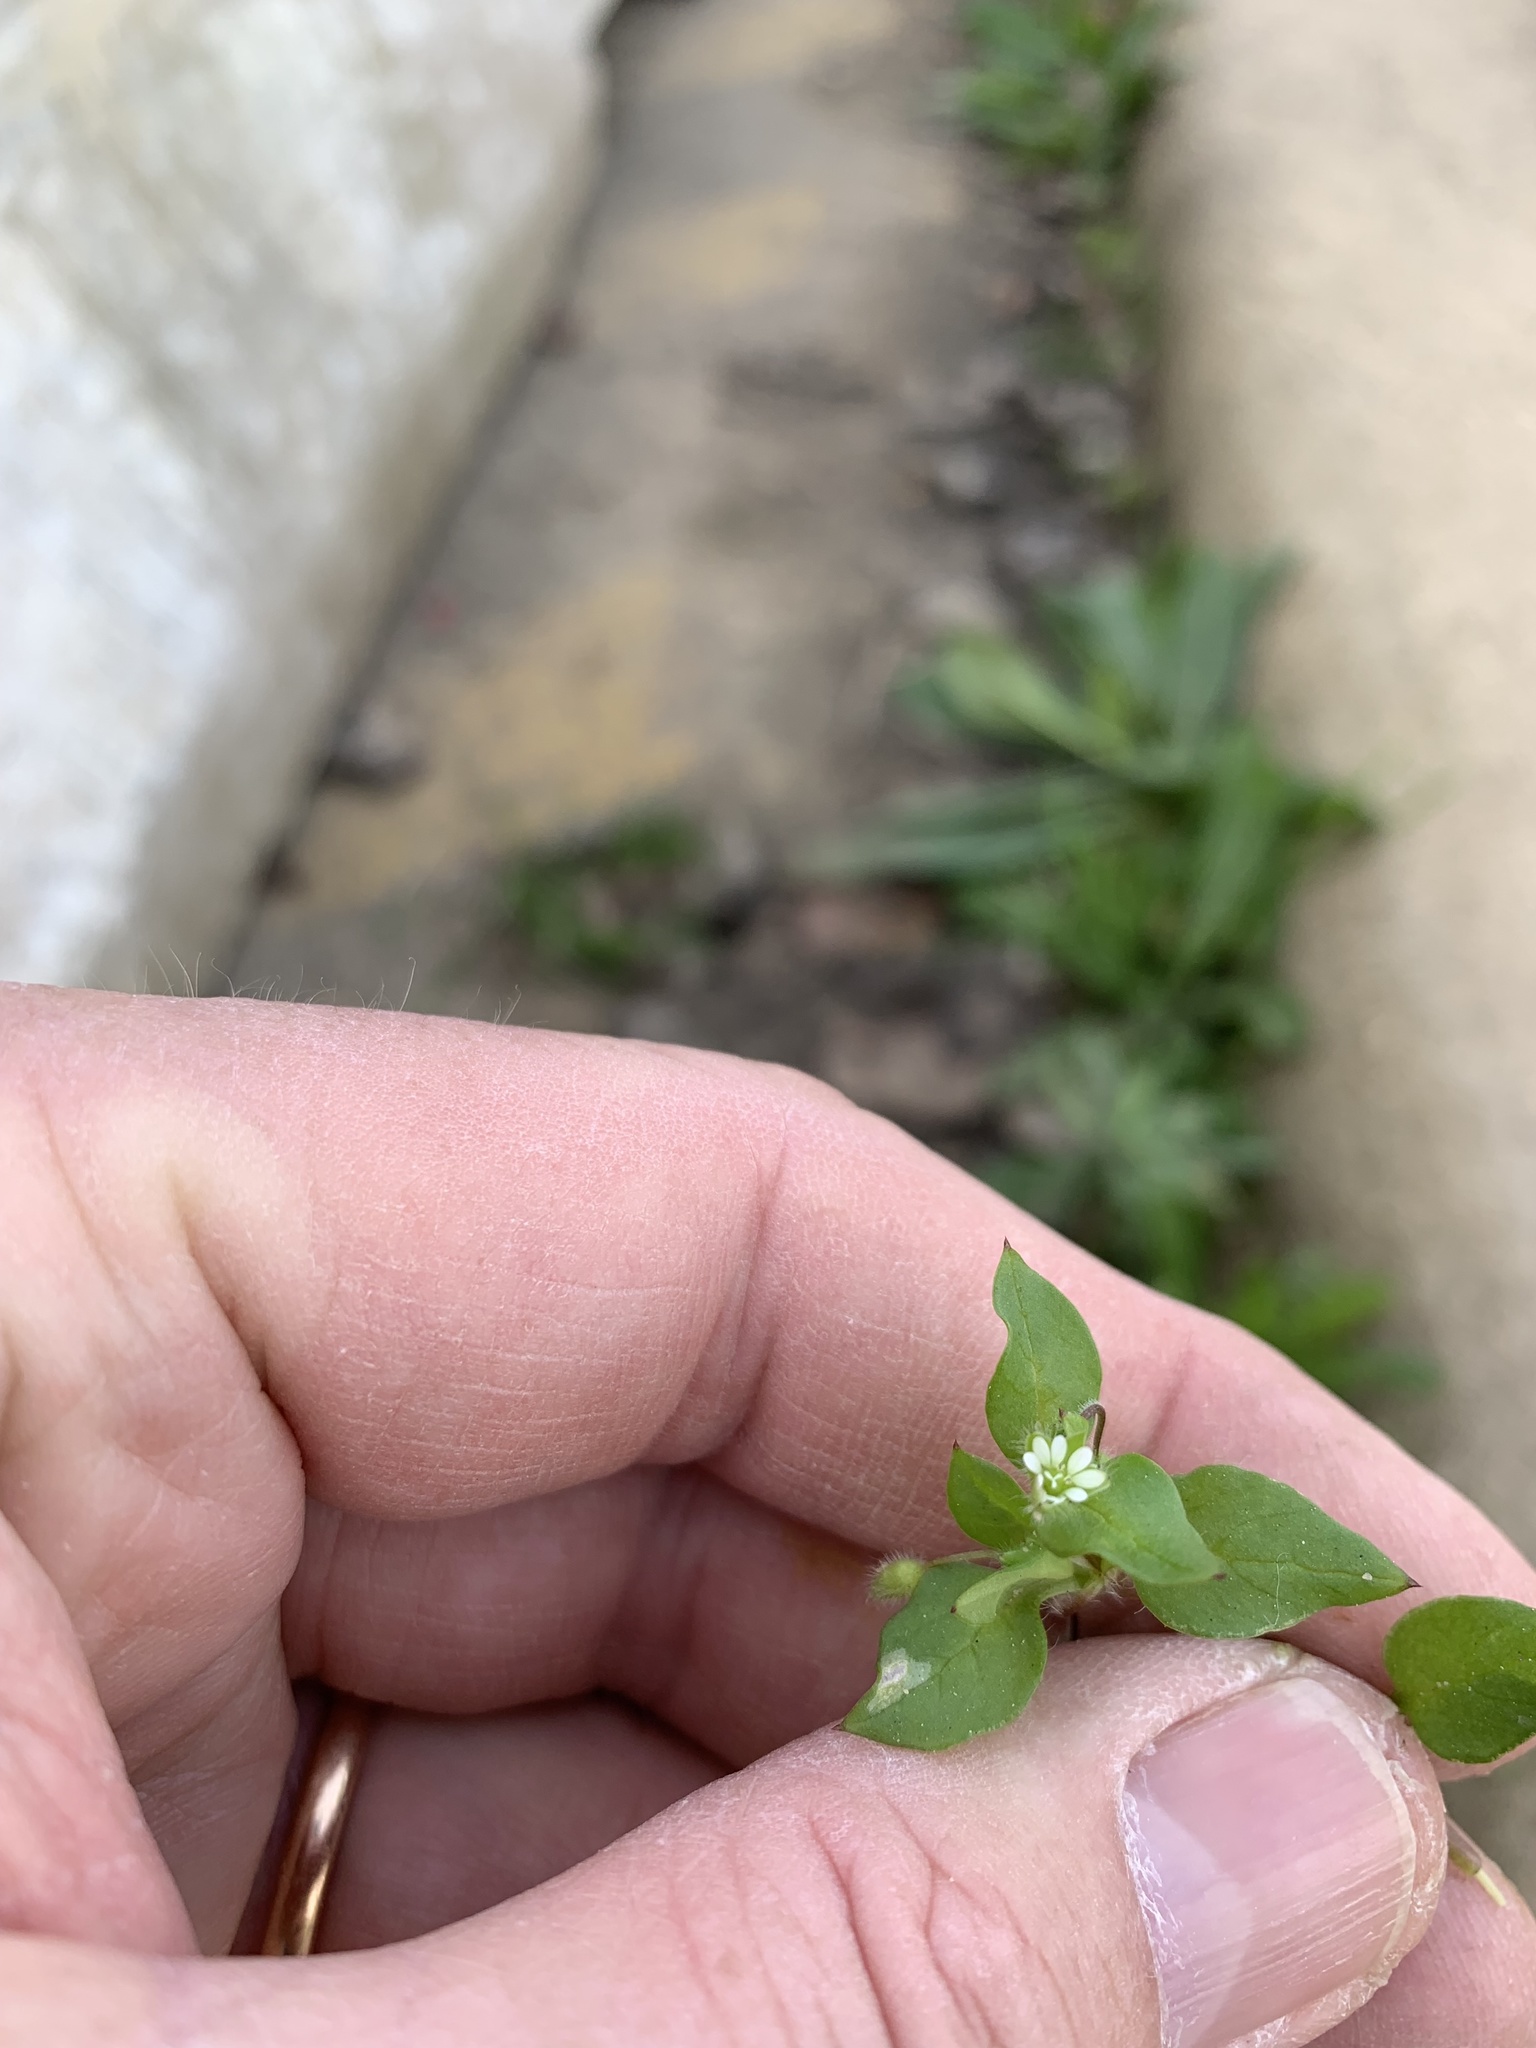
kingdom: Plantae
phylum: Tracheophyta
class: Magnoliopsida
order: Caryophyllales
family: Caryophyllaceae
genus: Stellaria
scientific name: Stellaria media
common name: Common chickweed
